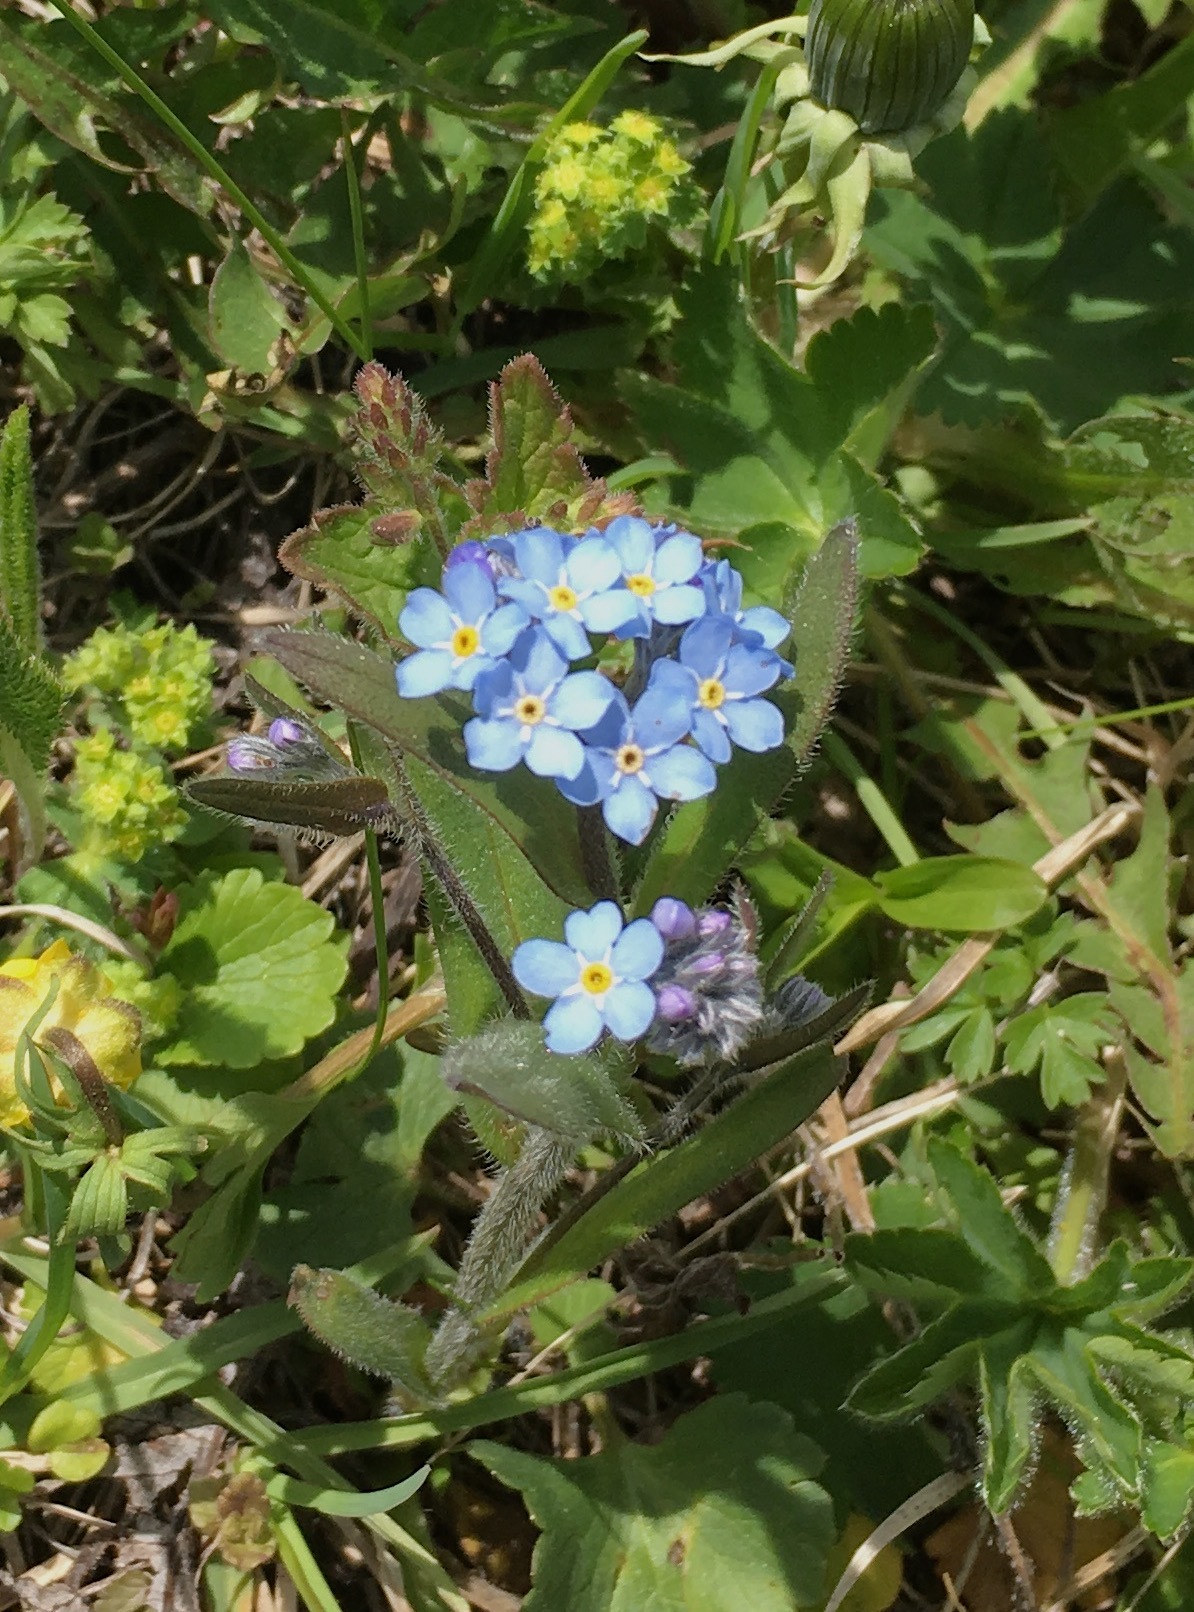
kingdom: Plantae
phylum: Tracheophyta
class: Magnoliopsida
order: Boraginales
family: Boraginaceae
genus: Myosotis
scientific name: Myosotis asiatica
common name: Asian forget-me-not
